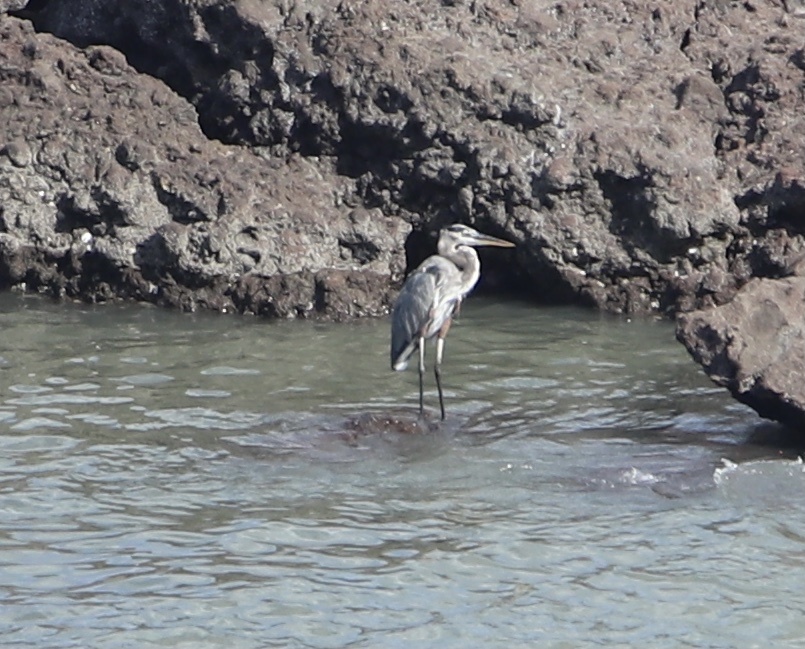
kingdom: Animalia
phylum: Chordata
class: Aves
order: Pelecaniformes
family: Ardeidae
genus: Ardea
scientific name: Ardea herodias
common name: Great blue heron
